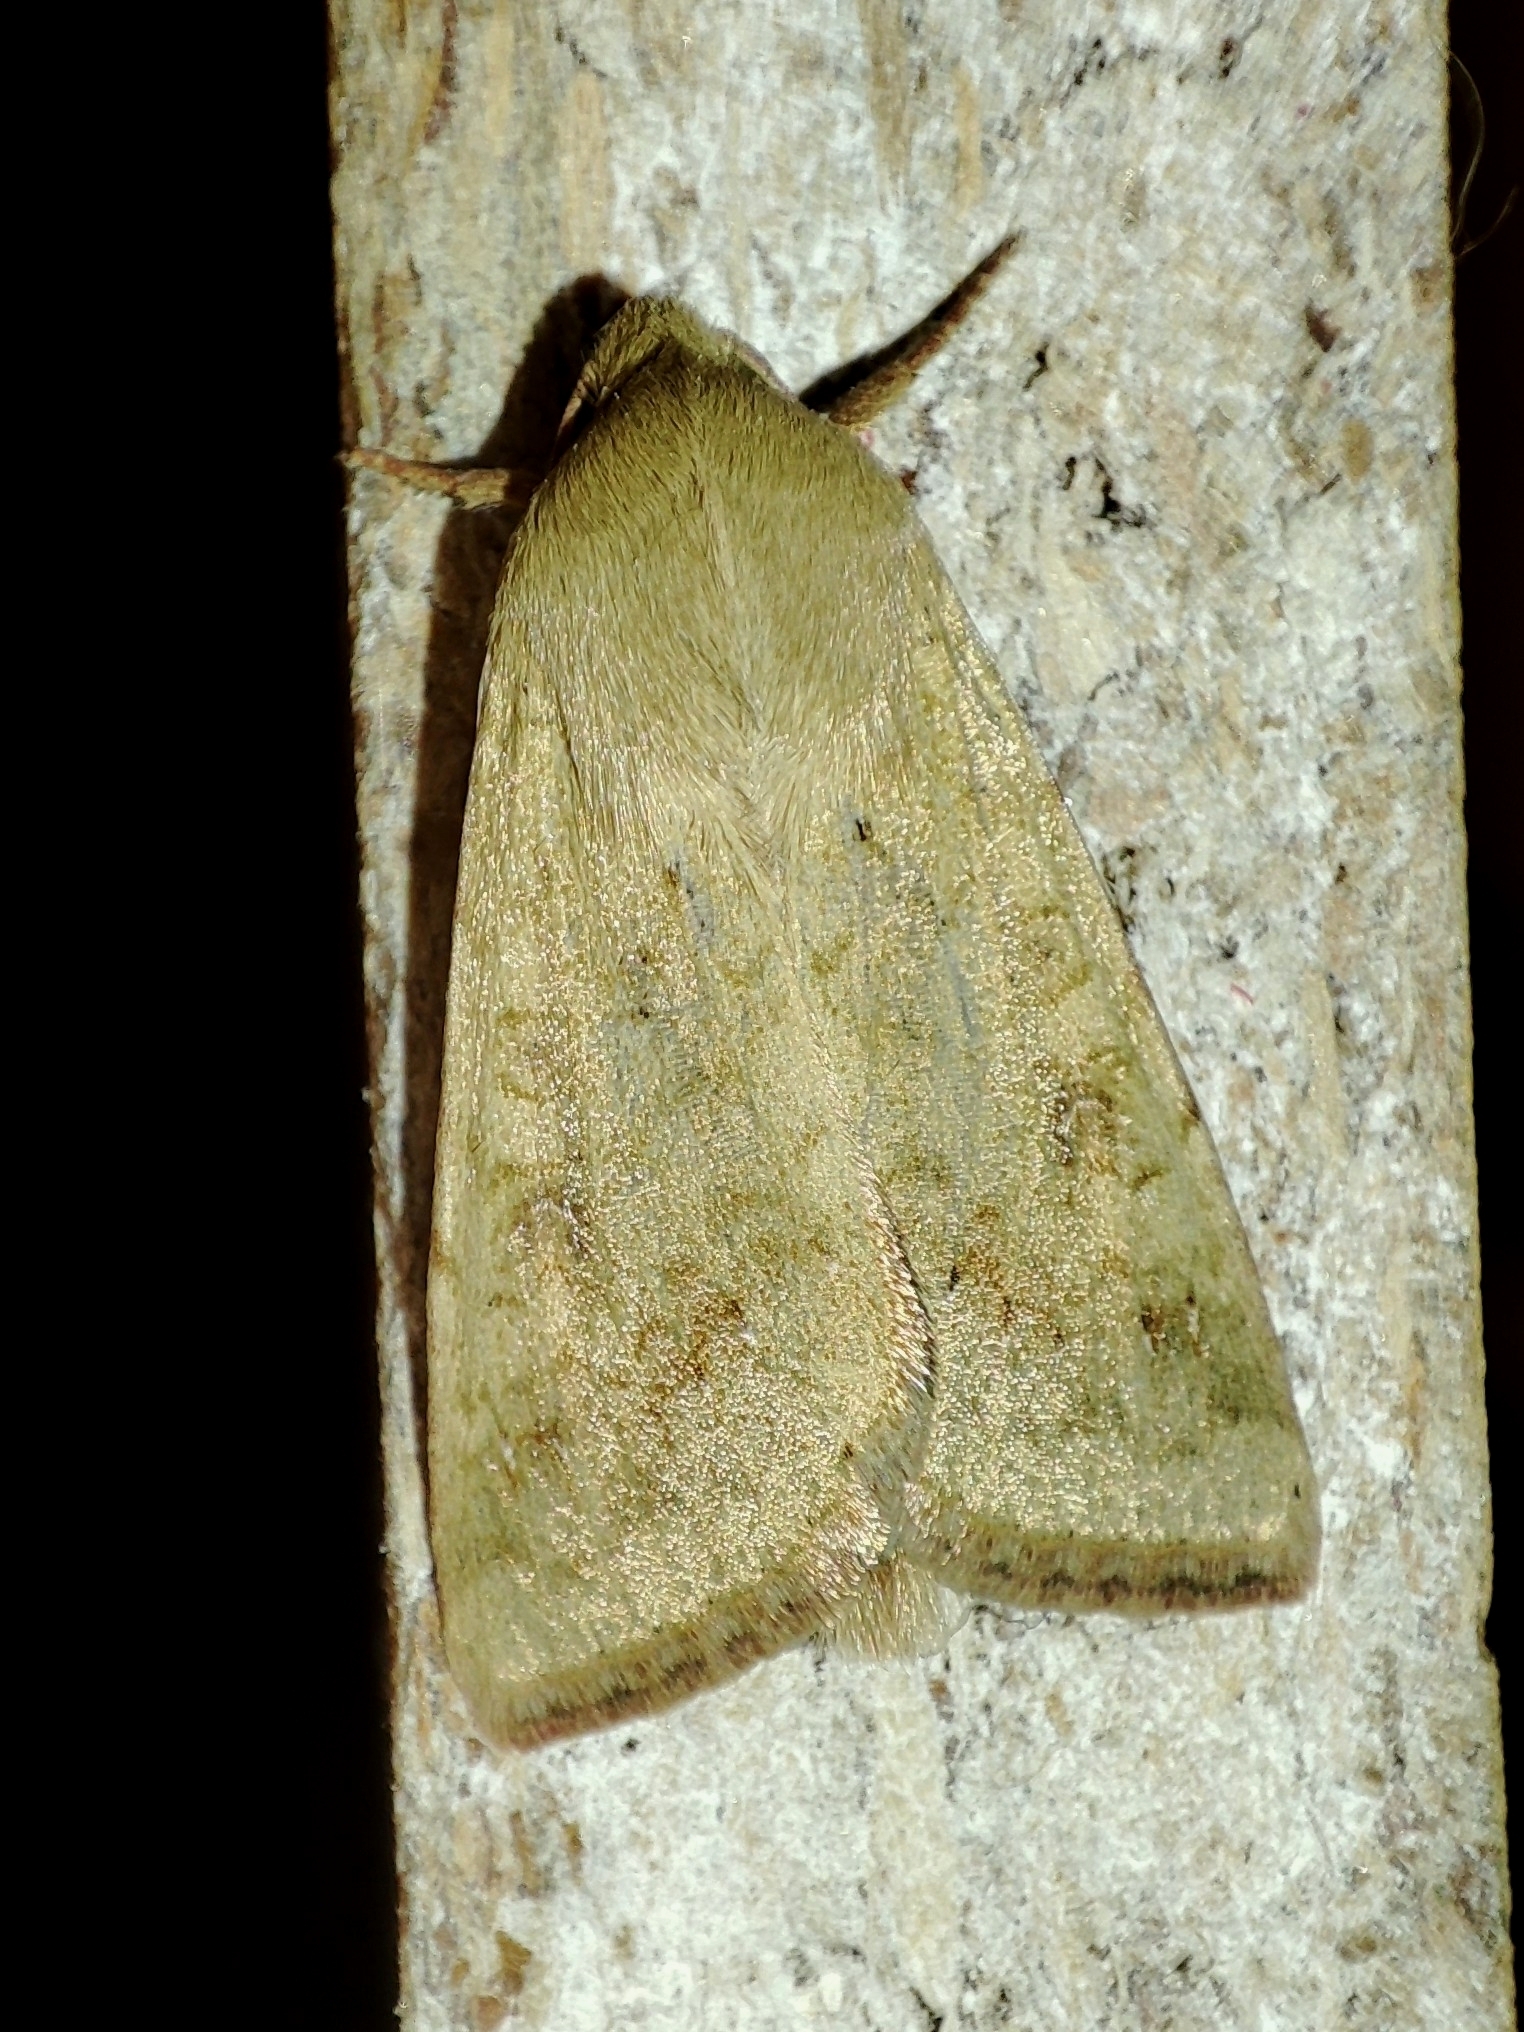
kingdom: Animalia
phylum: Arthropoda
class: Insecta
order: Lepidoptera
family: Noctuidae
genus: Helicoverpa
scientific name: Helicoverpa armigera
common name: Cotton bollworm
